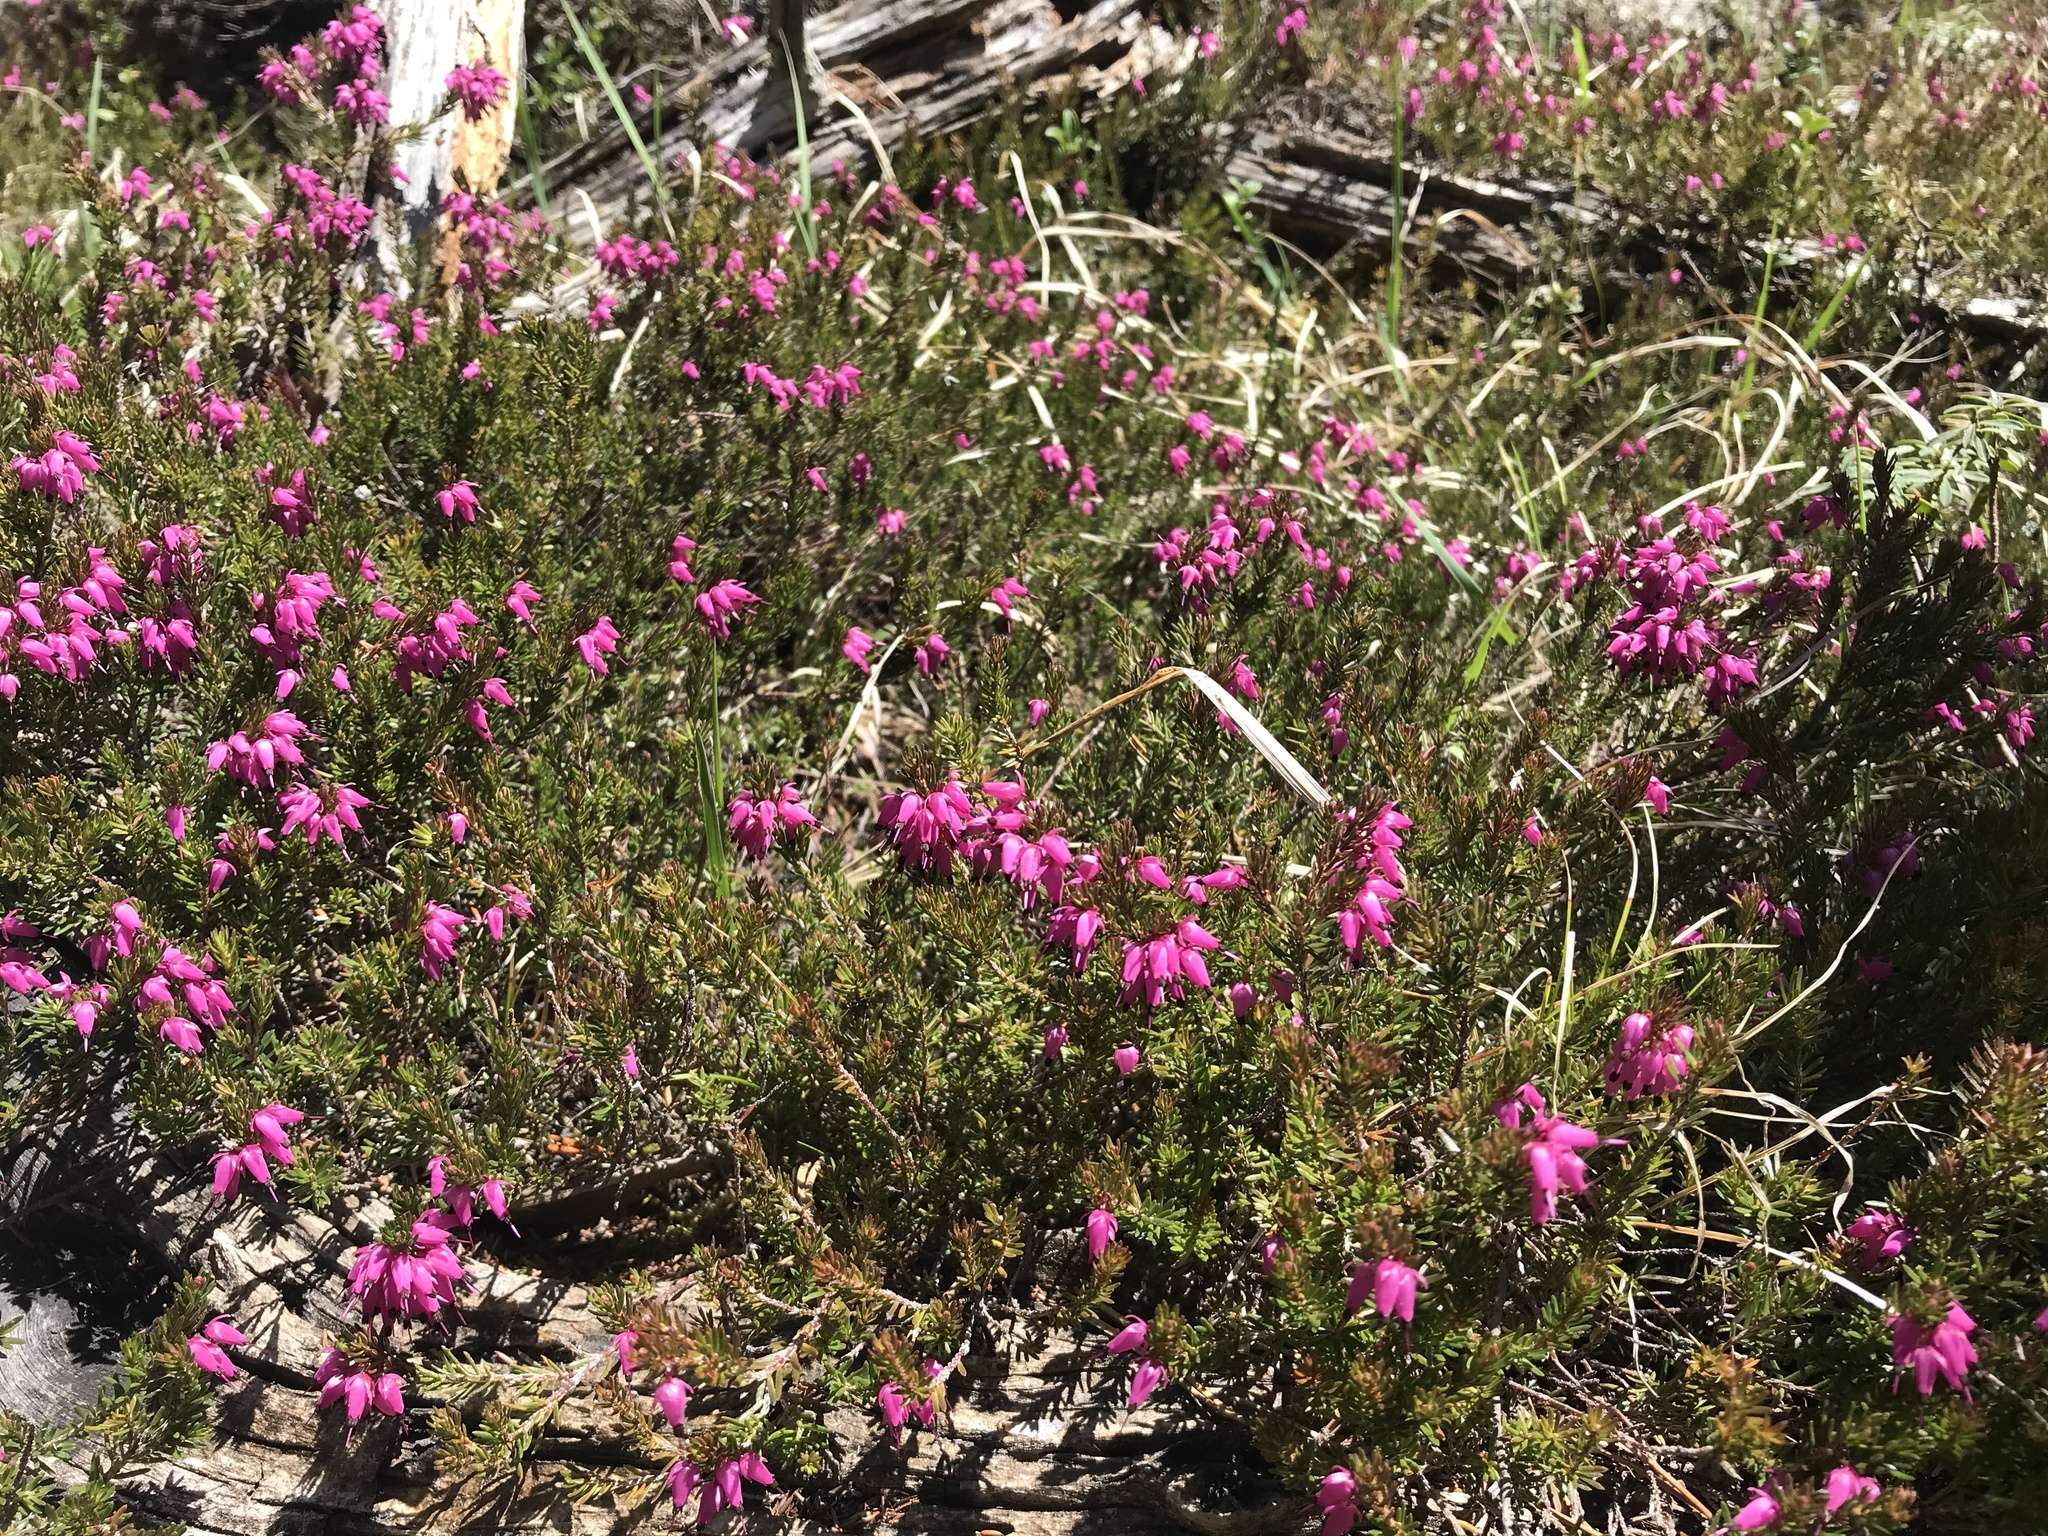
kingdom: Plantae
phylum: Tracheophyta
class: Magnoliopsida
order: Ericales
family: Ericaceae
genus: Erica
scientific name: Erica carnea
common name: Winter heath
